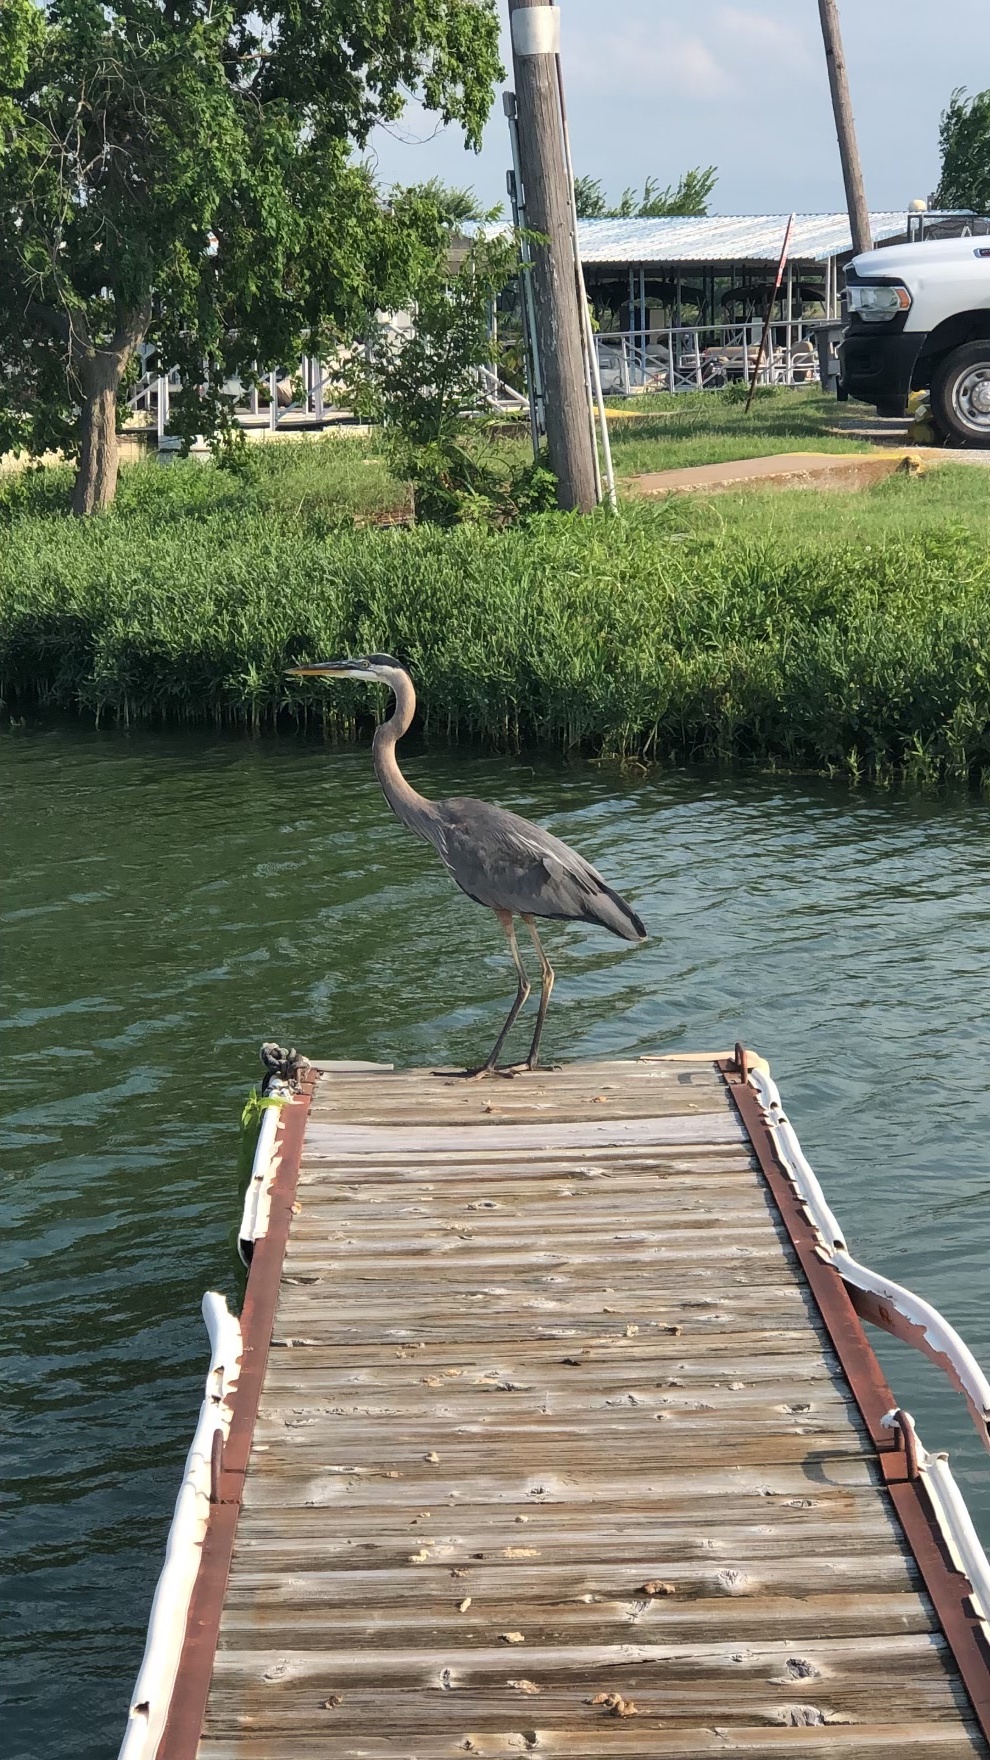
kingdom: Animalia
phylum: Chordata
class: Aves
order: Pelecaniformes
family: Ardeidae
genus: Ardea
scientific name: Ardea herodias
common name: Great blue heron
